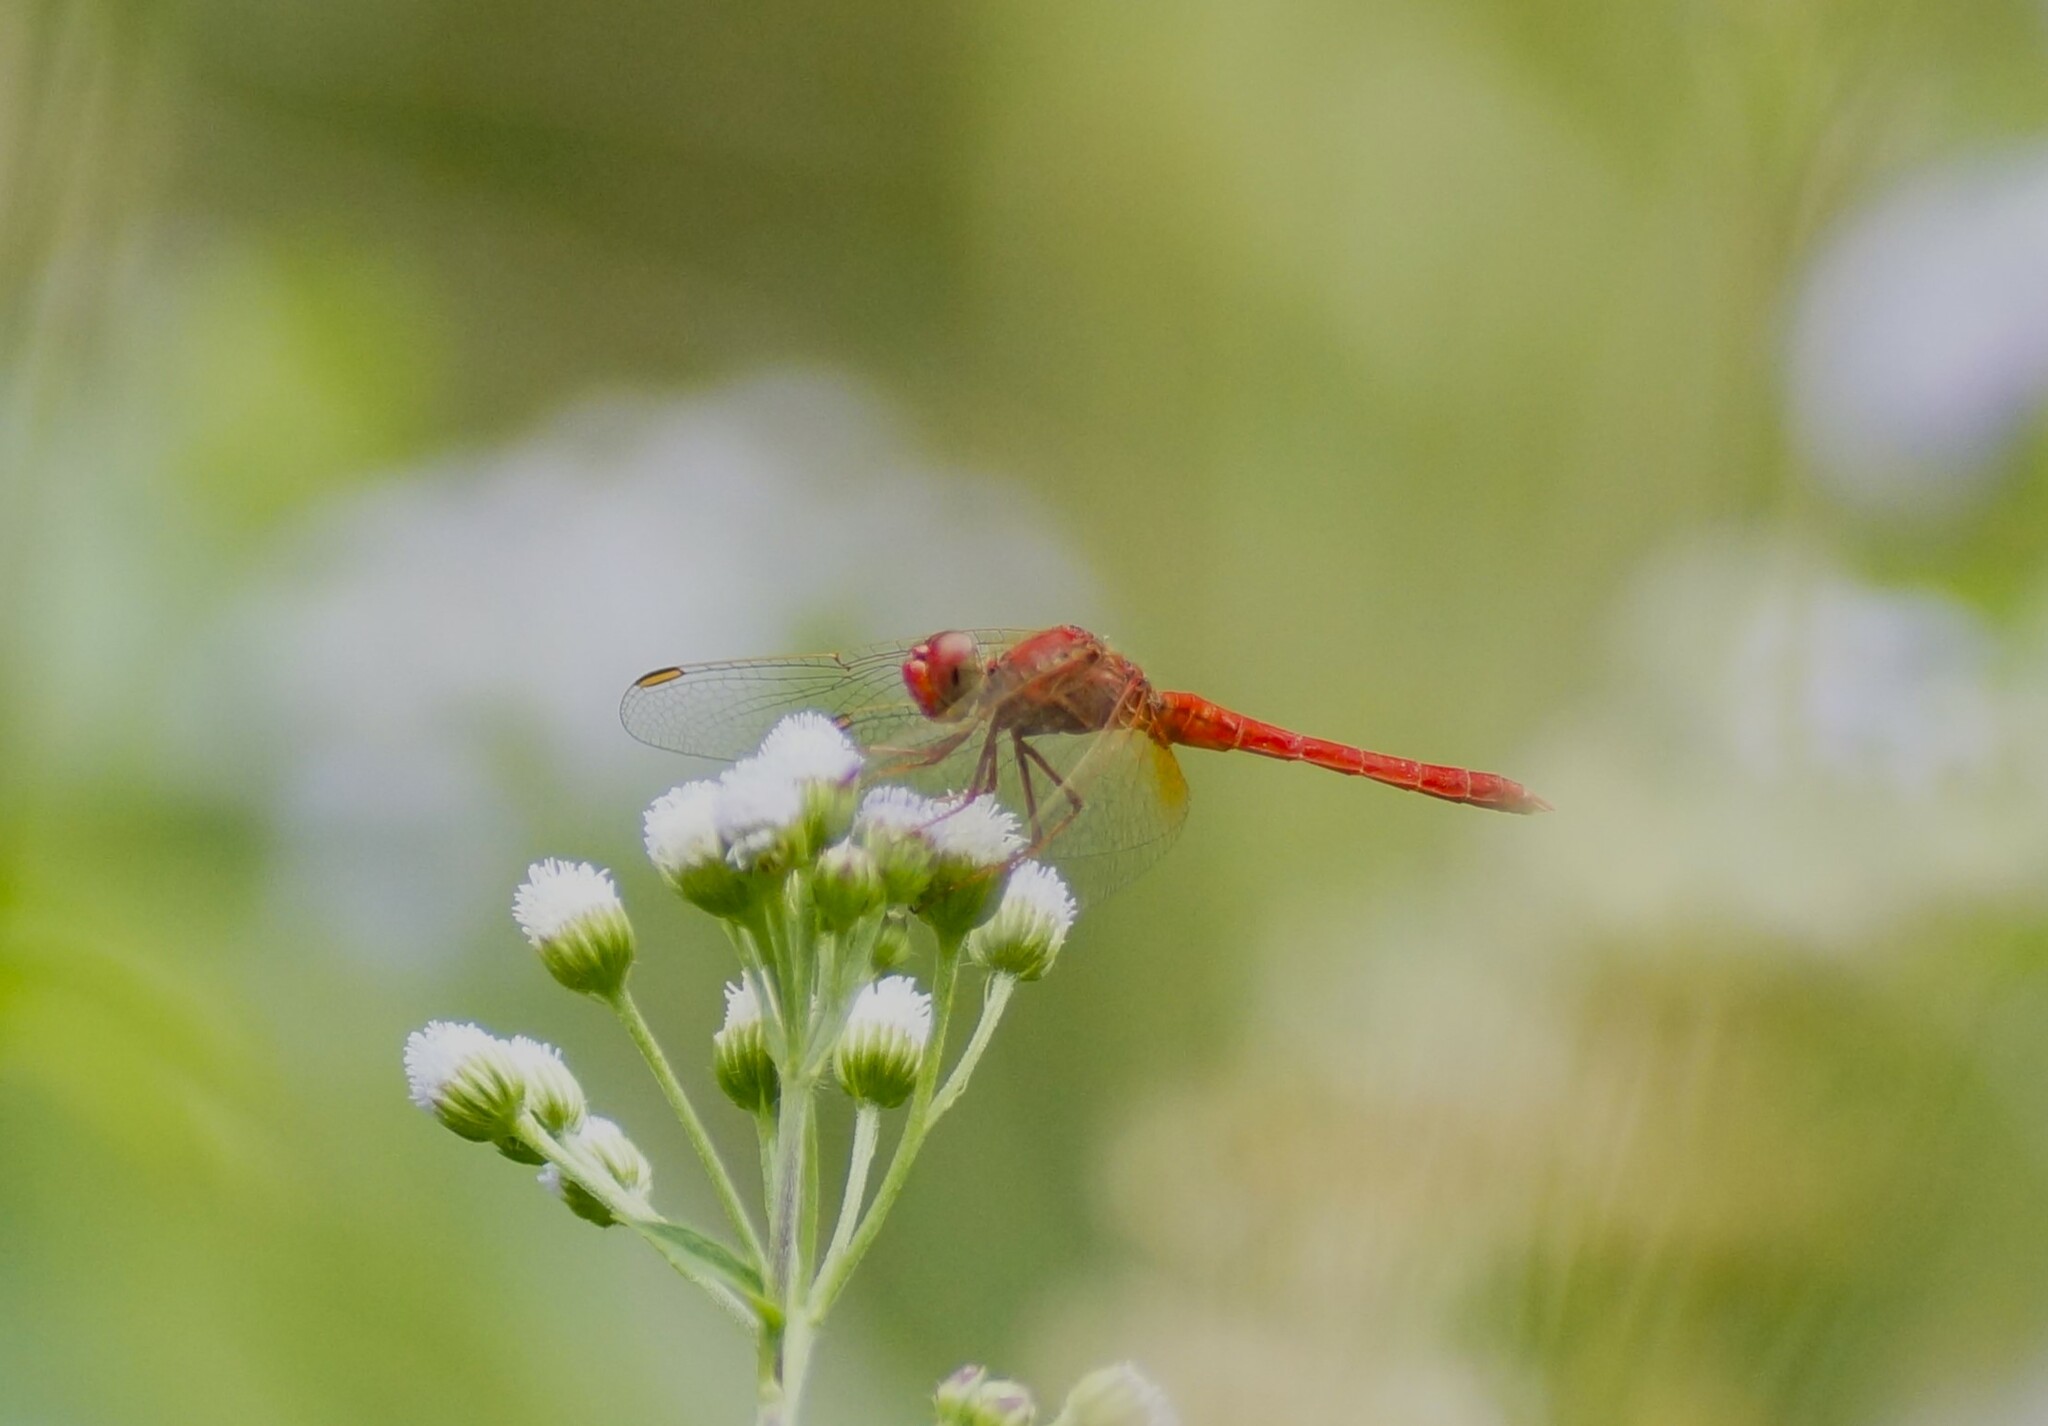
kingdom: Animalia
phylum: Arthropoda
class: Insecta
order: Odonata
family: Libellulidae
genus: Diplacodes
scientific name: Diplacodes haematodes
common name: Scarlet percher
